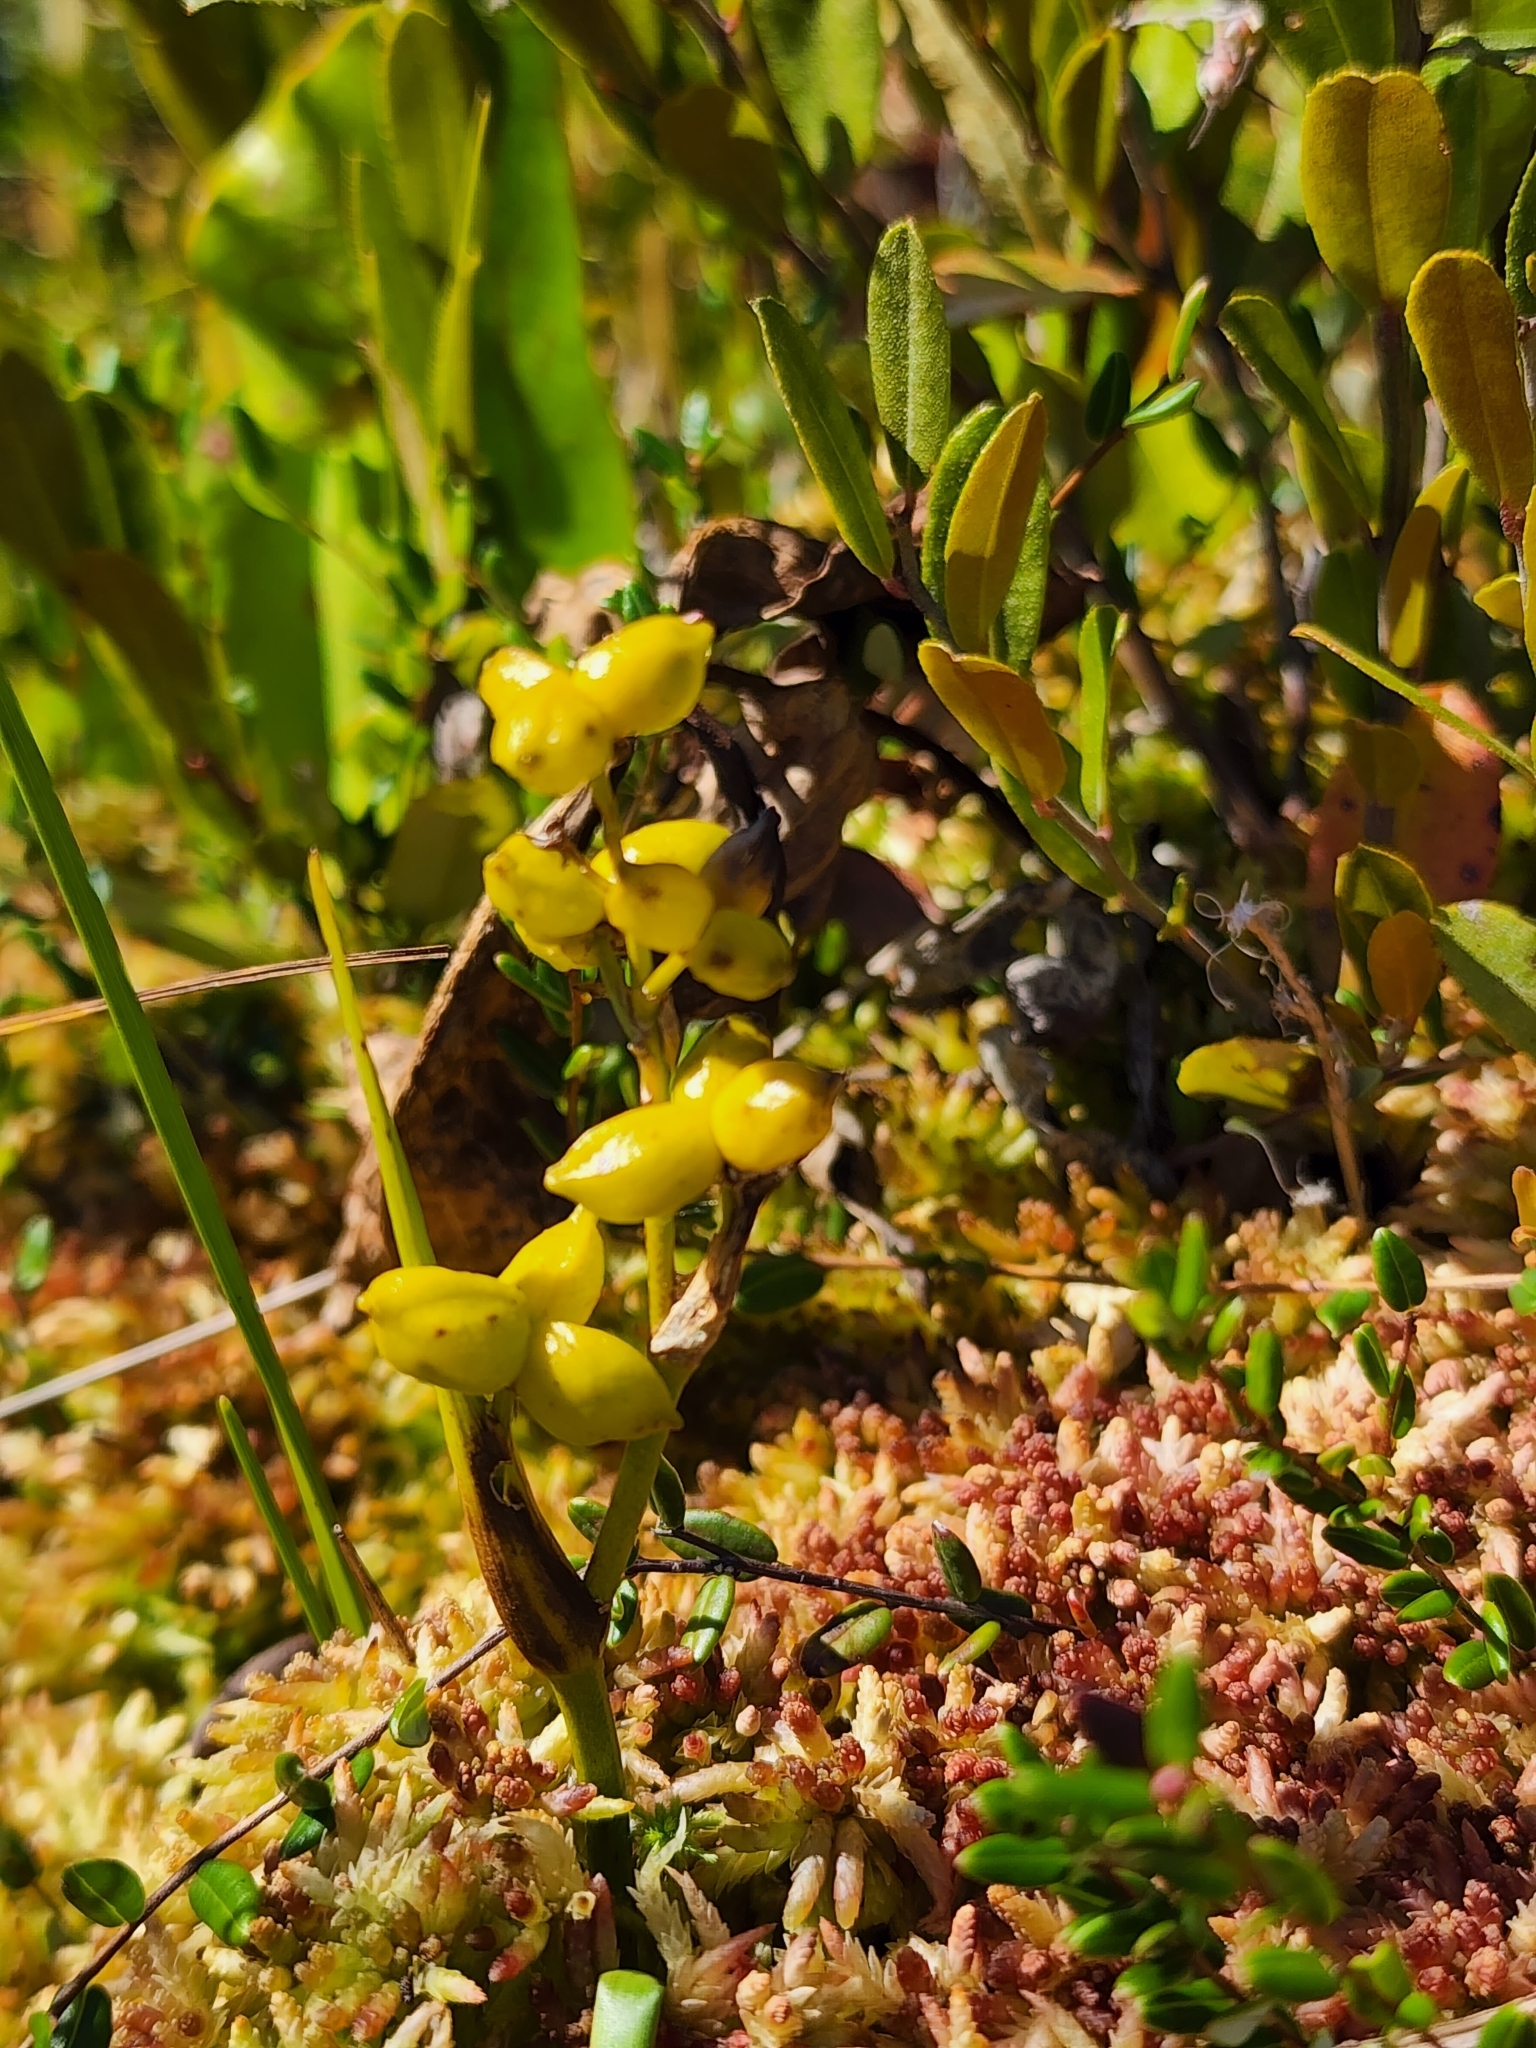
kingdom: Plantae
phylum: Tracheophyta
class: Liliopsida
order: Alismatales
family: Scheuchzeriaceae
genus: Scheuchzeria
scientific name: Scheuchzeria palustris
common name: Rannoch-rush
